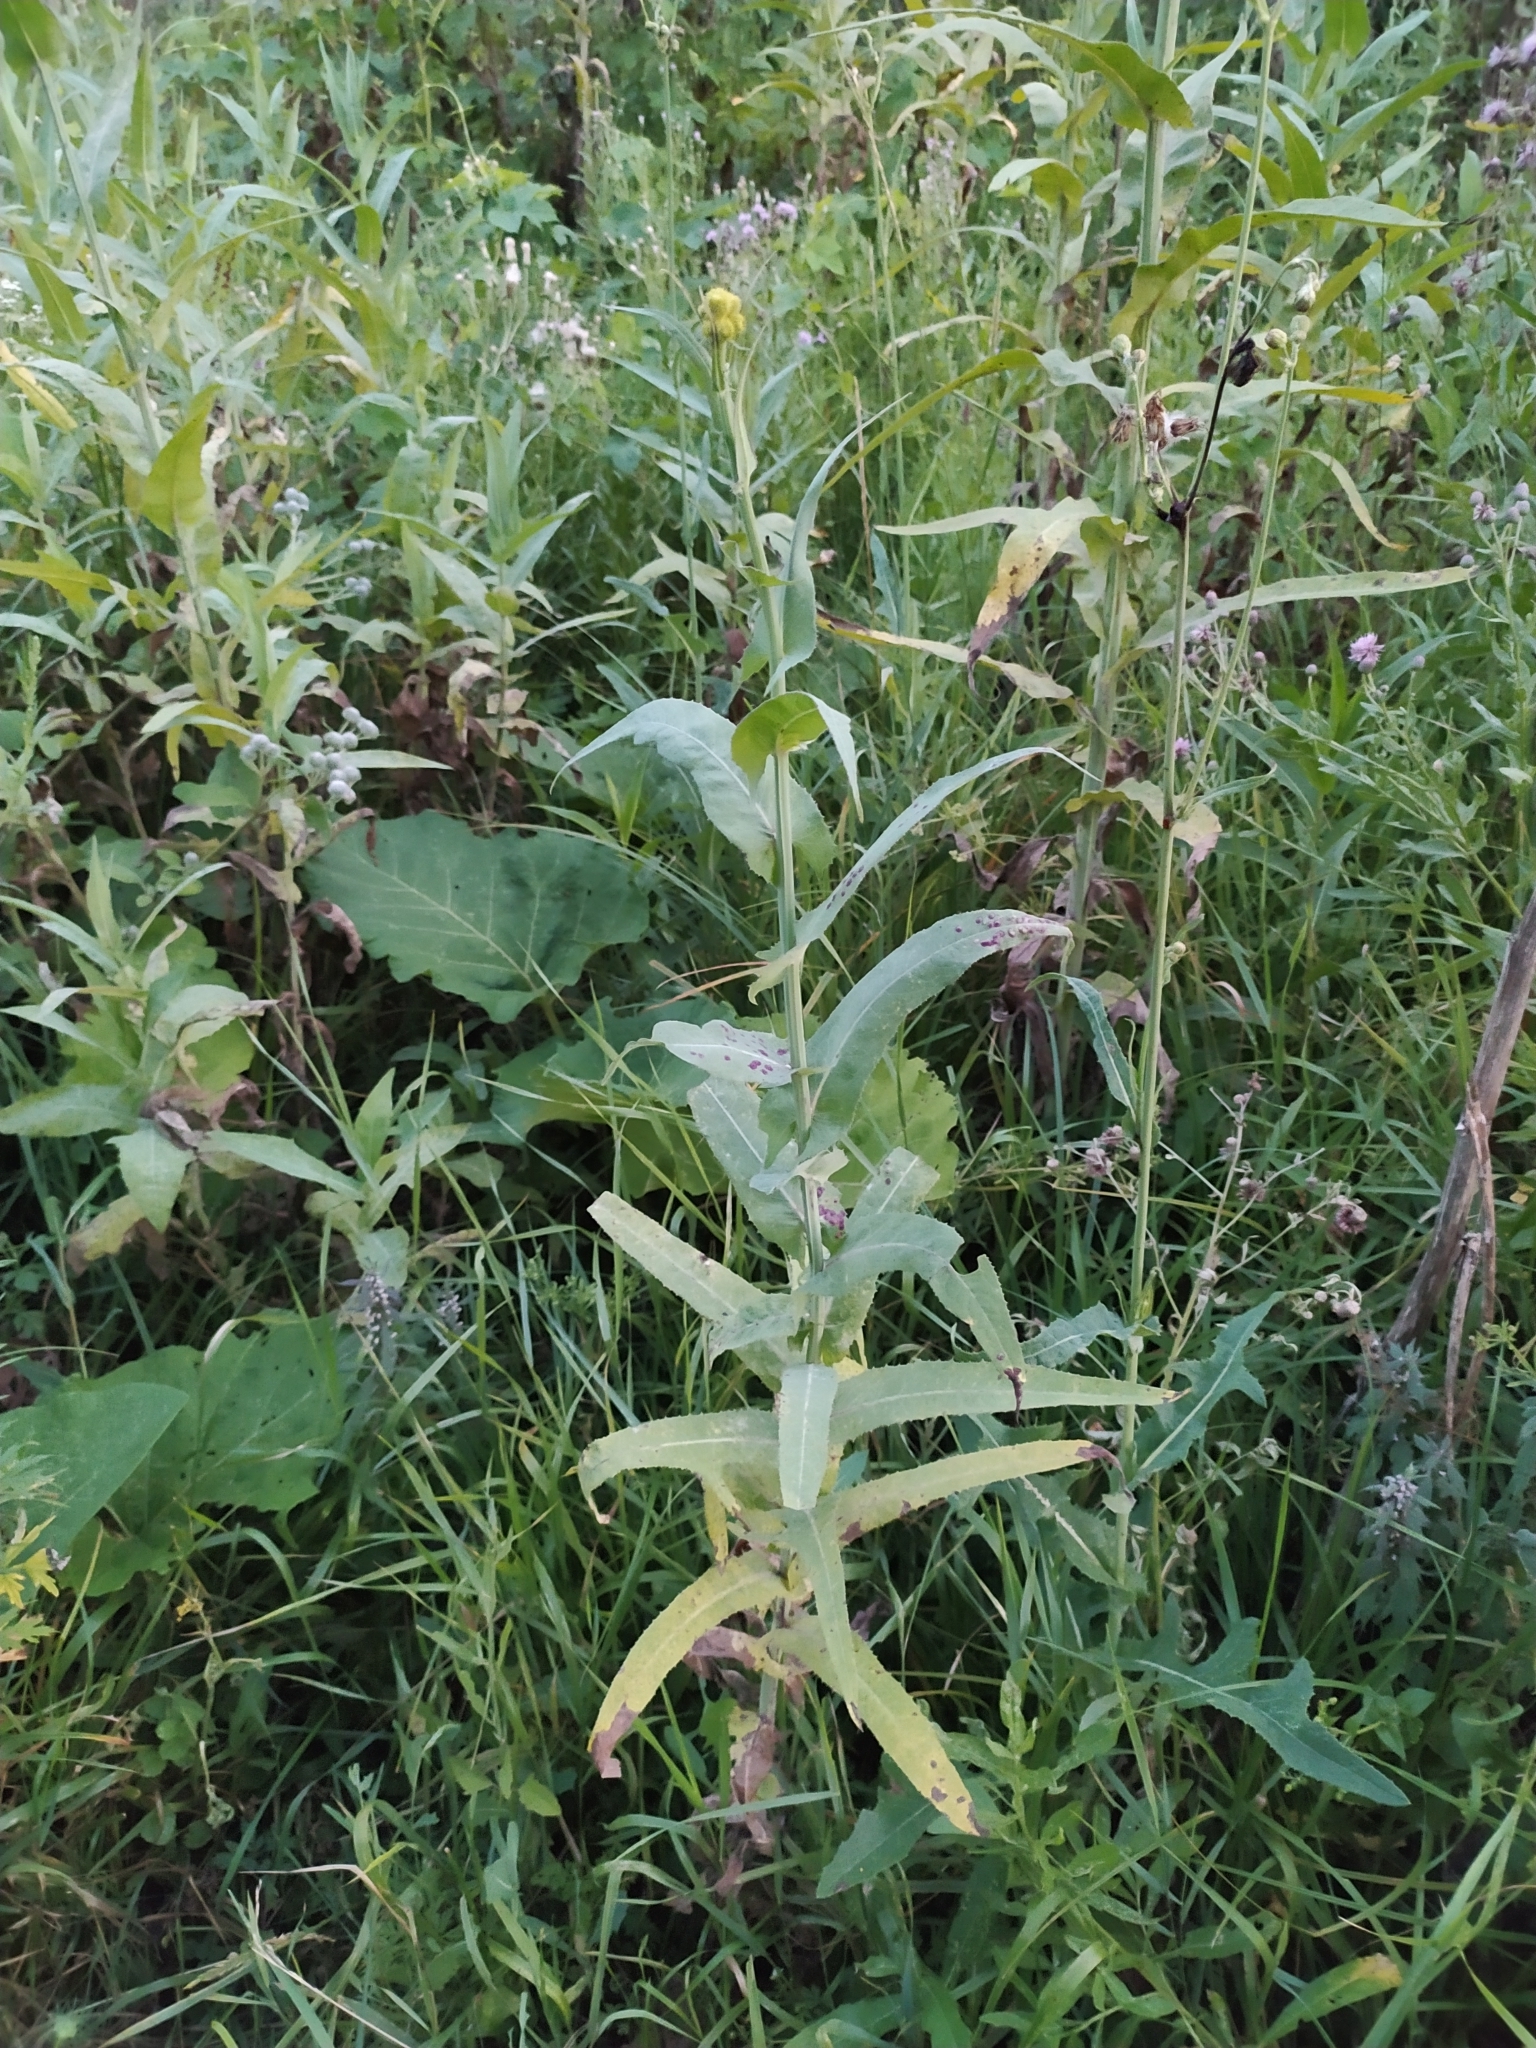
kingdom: Plantae
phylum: Tracheophyta
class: Magnoliopsida
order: Asterales
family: Asteraceae
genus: Sonchus
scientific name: Sonchus palustris
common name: Marsh sow-thistle
